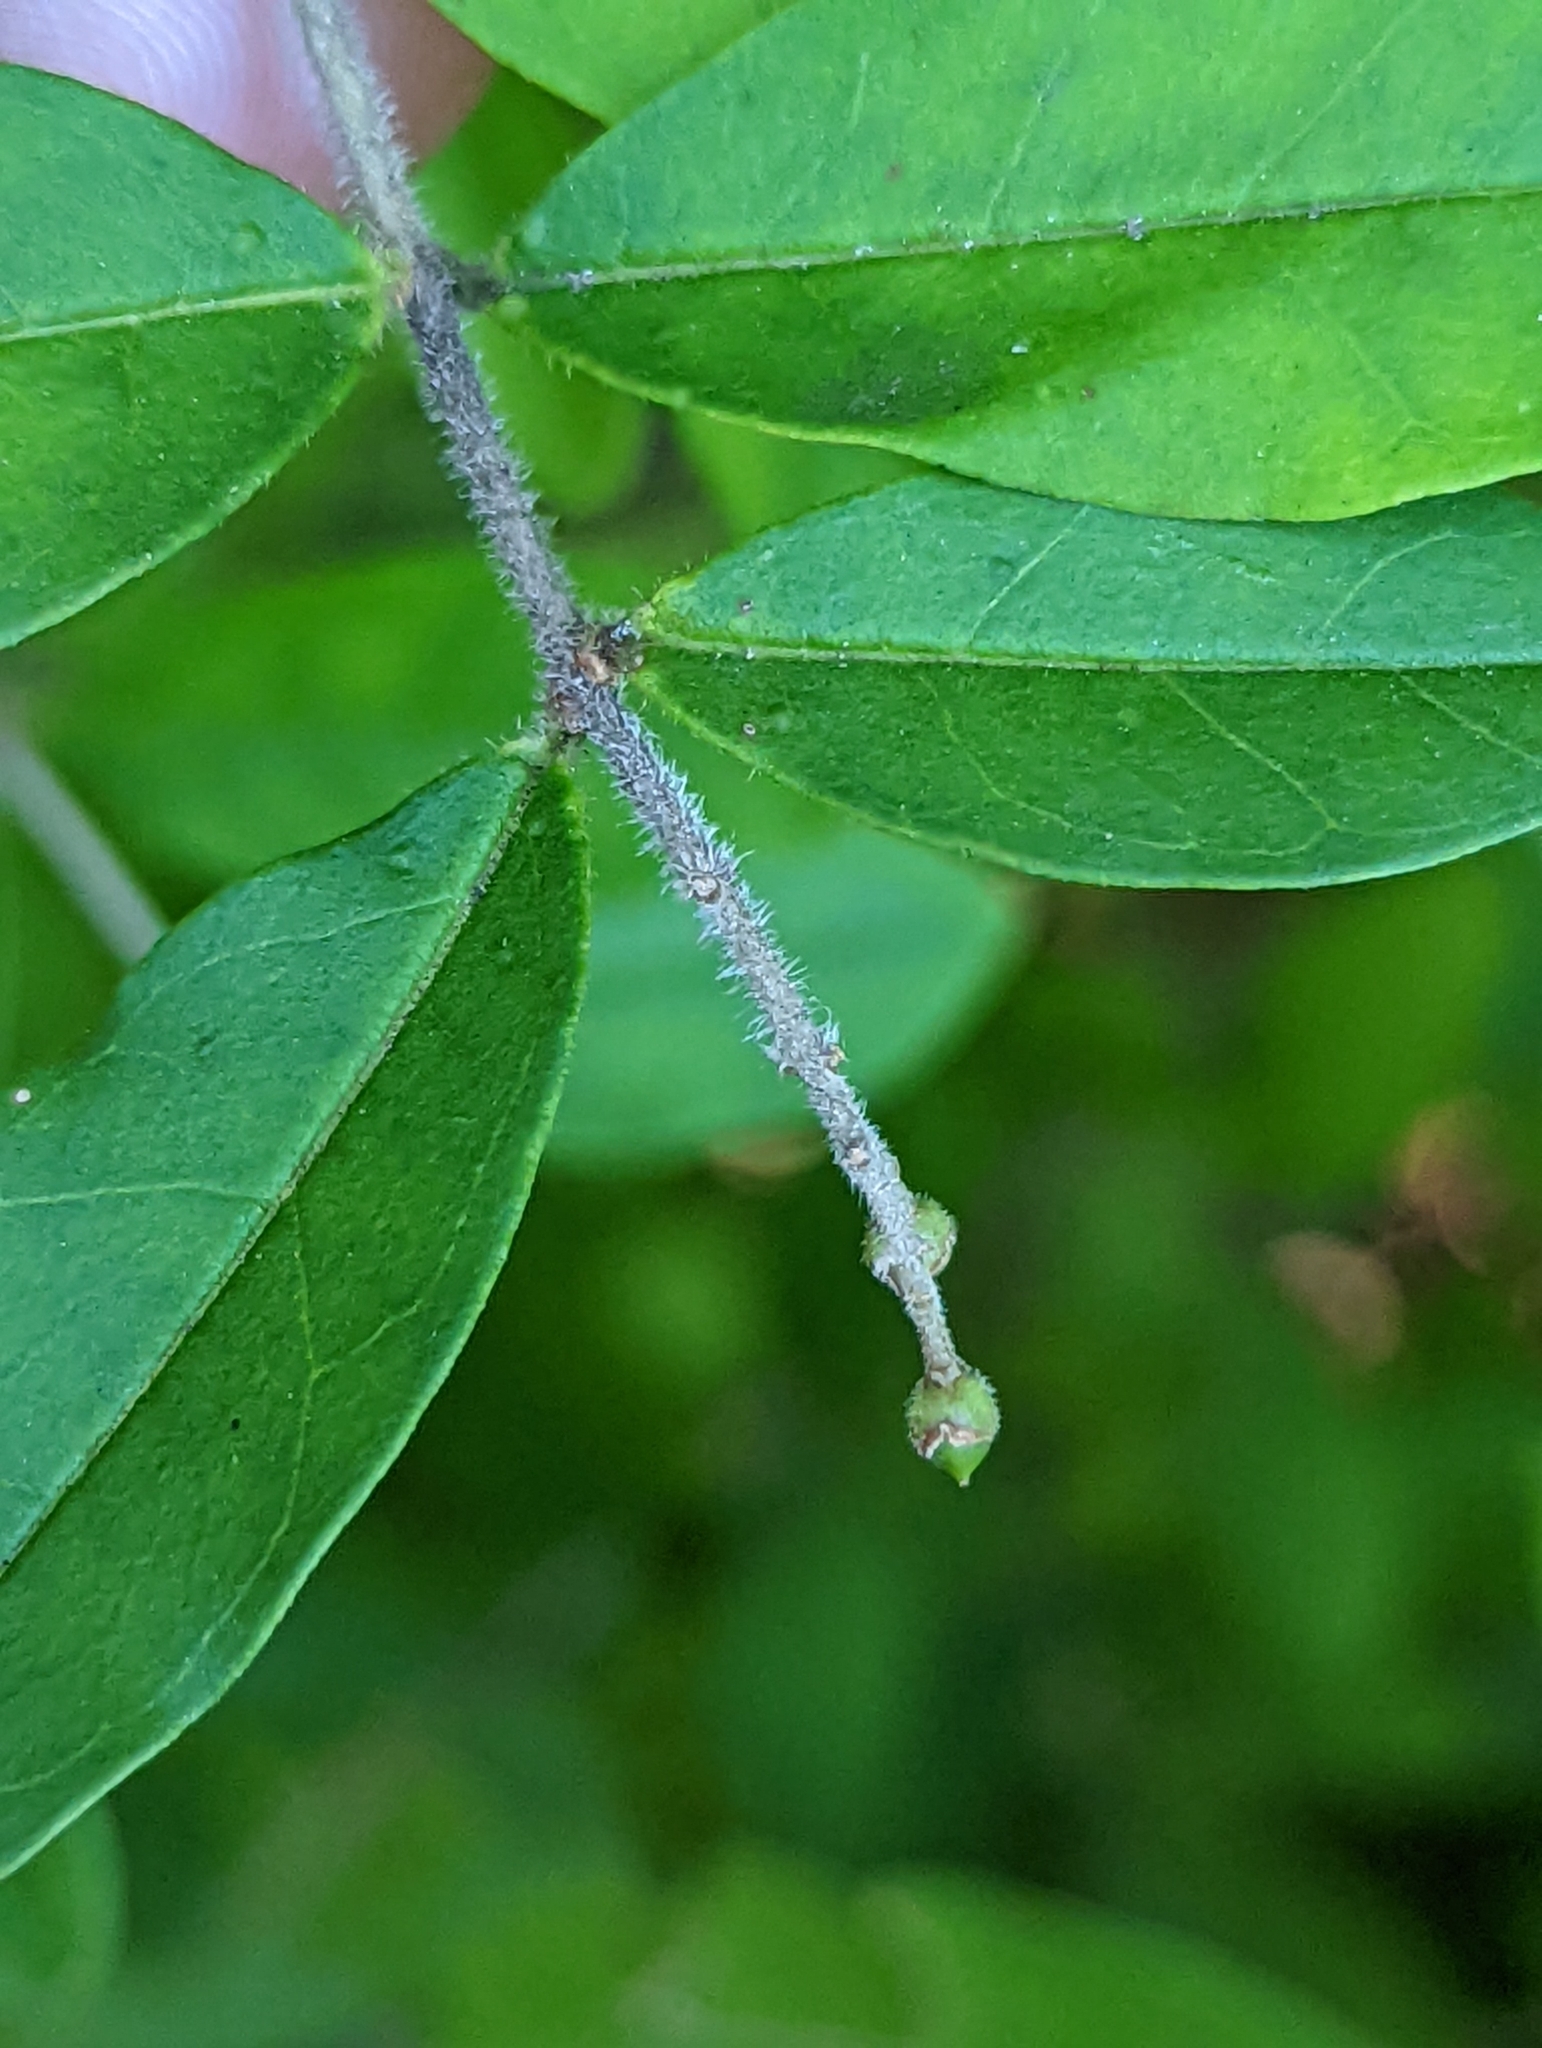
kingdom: Plantae
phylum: Tracheophyta
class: Magnoliopsida
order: Lamiales
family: Oleaceae
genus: Ligustrum
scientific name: Ligustrum obtusifolium
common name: Border privet
